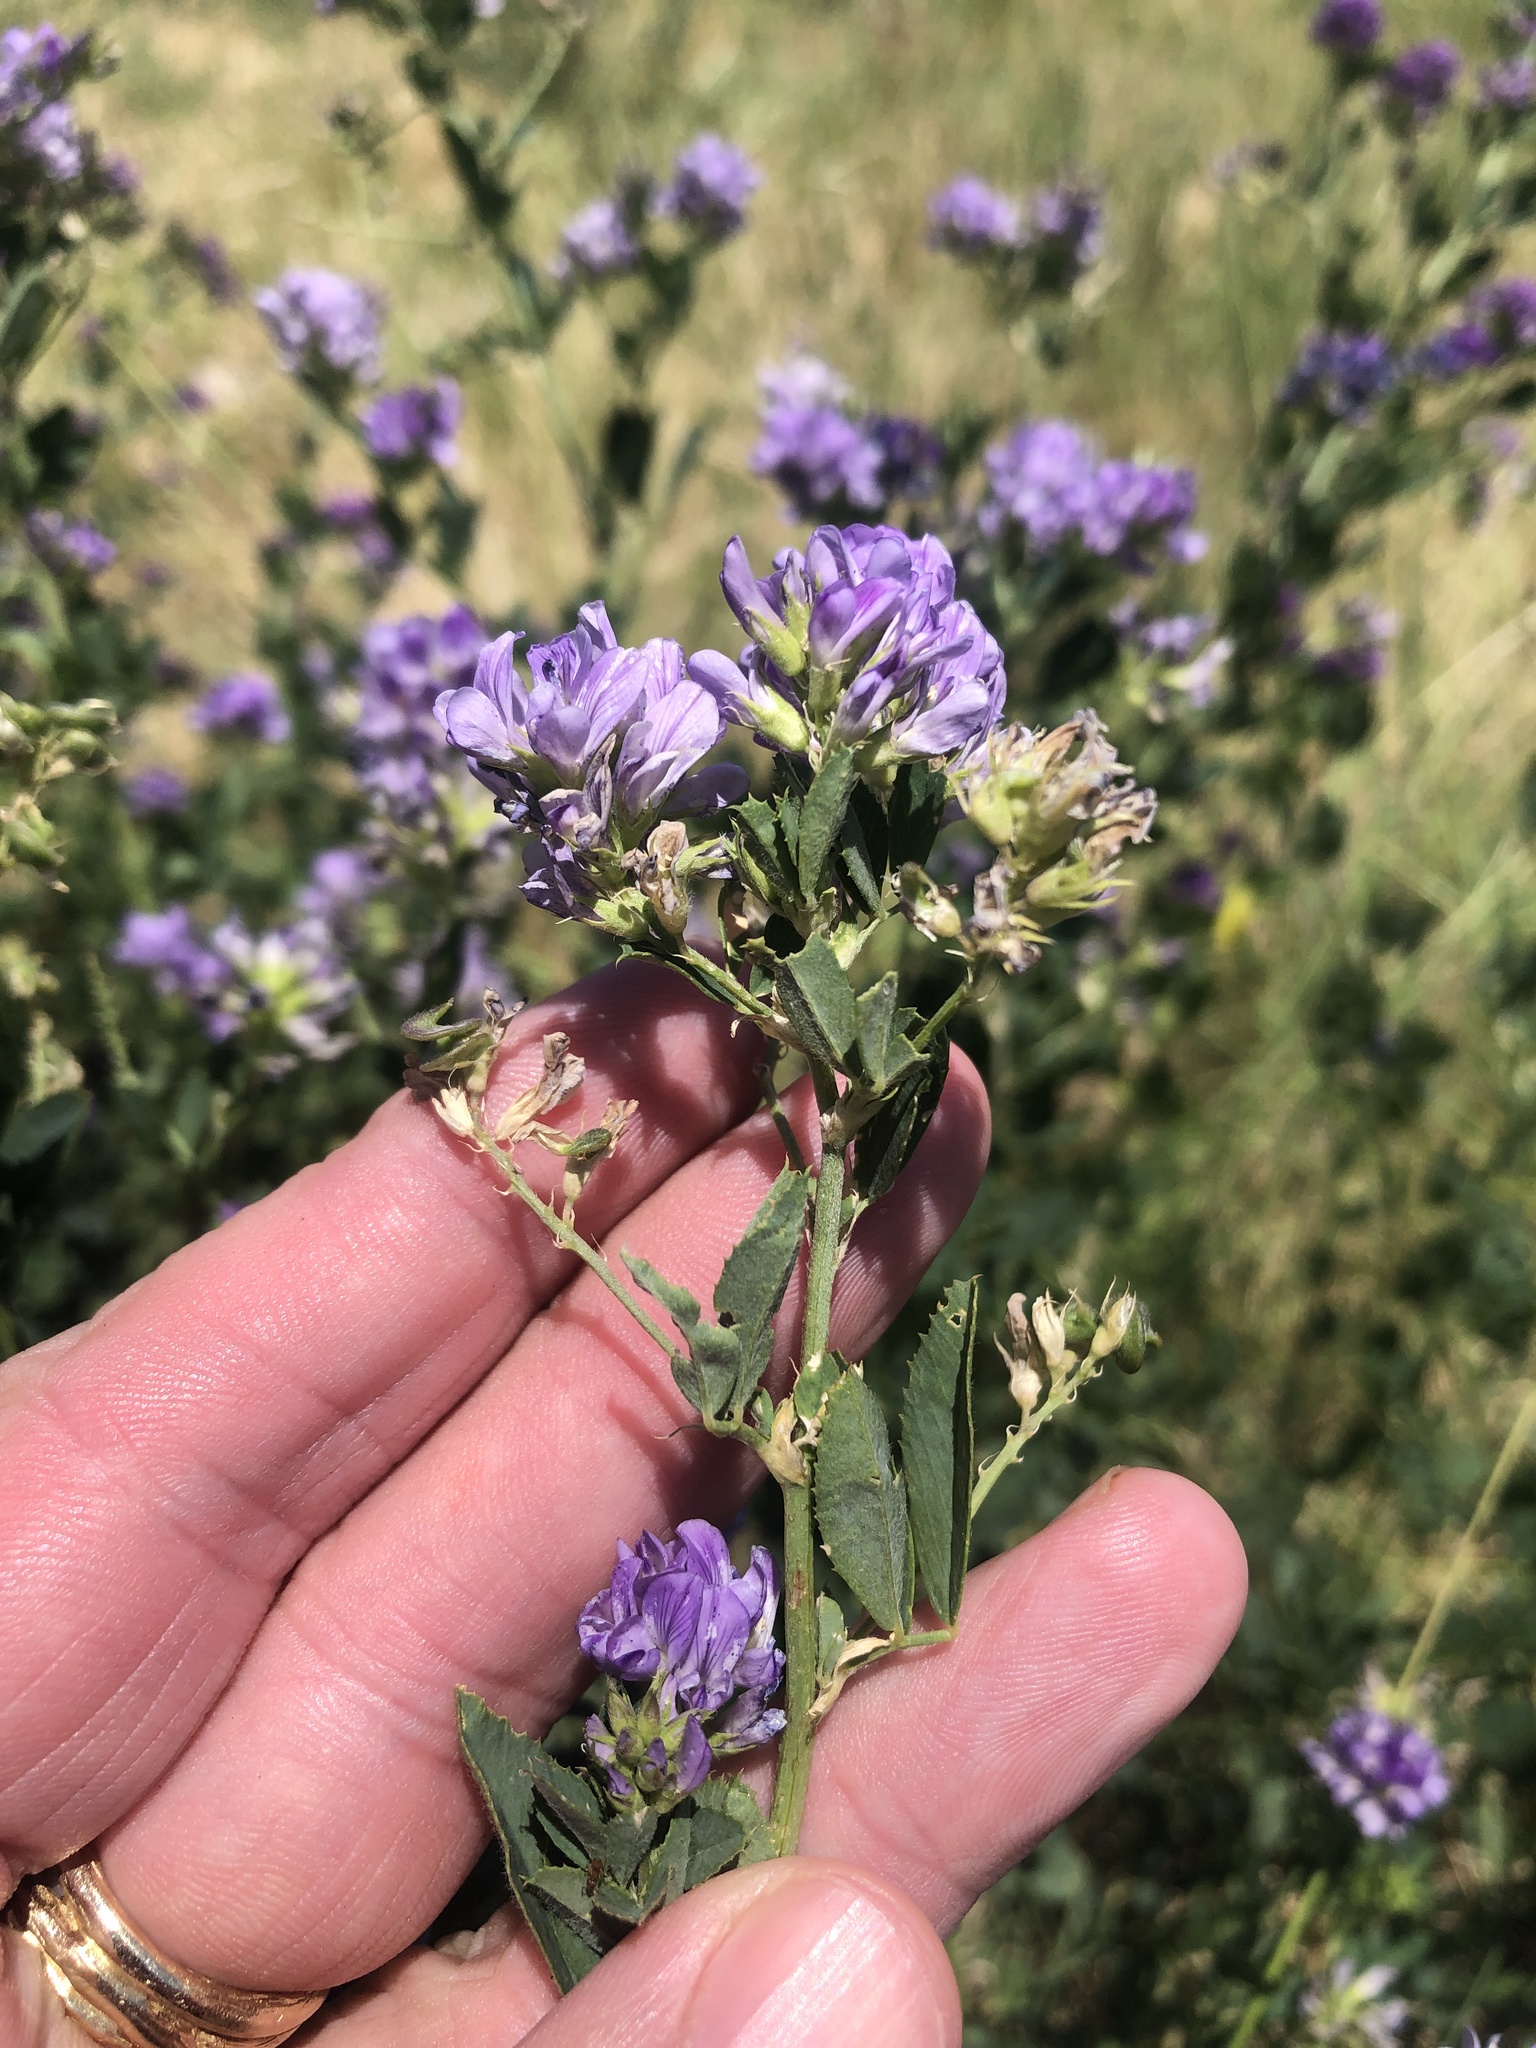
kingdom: Plantae
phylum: Tracheophyta
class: Magnoliopsida
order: Fabales
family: Fabaceae
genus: Medicago
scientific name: Medicago sativa
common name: Alfalfa
